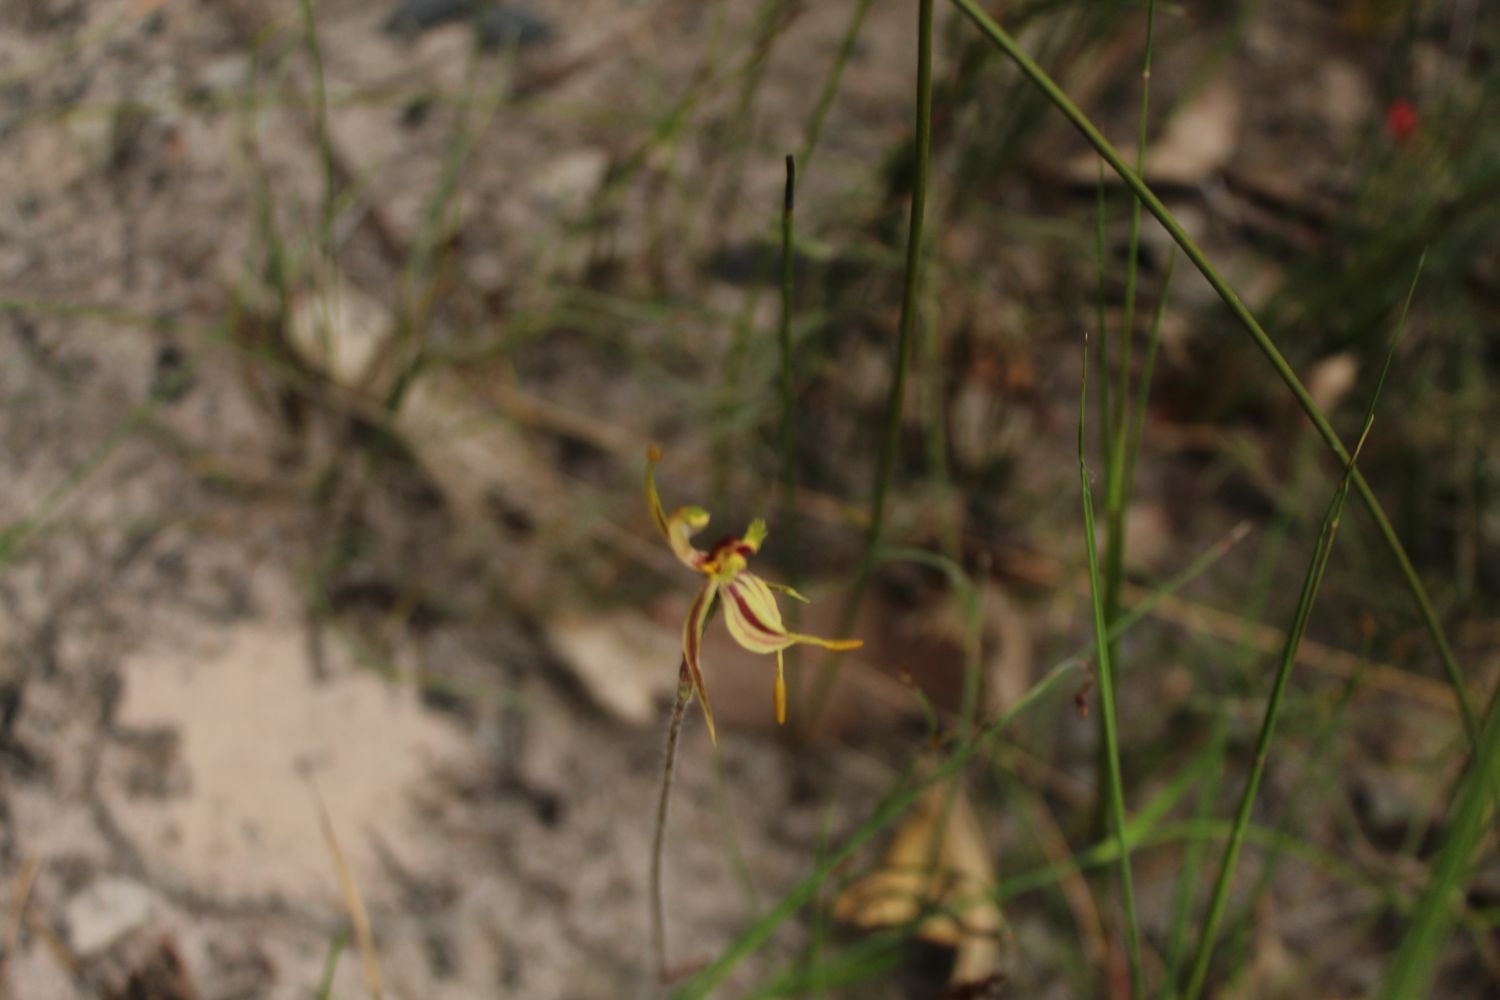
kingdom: Plantae
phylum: Tracheophyta
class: Liliopsida
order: Asparagales
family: Orchidaceae
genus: Caladenia
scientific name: Caladenia plicata
